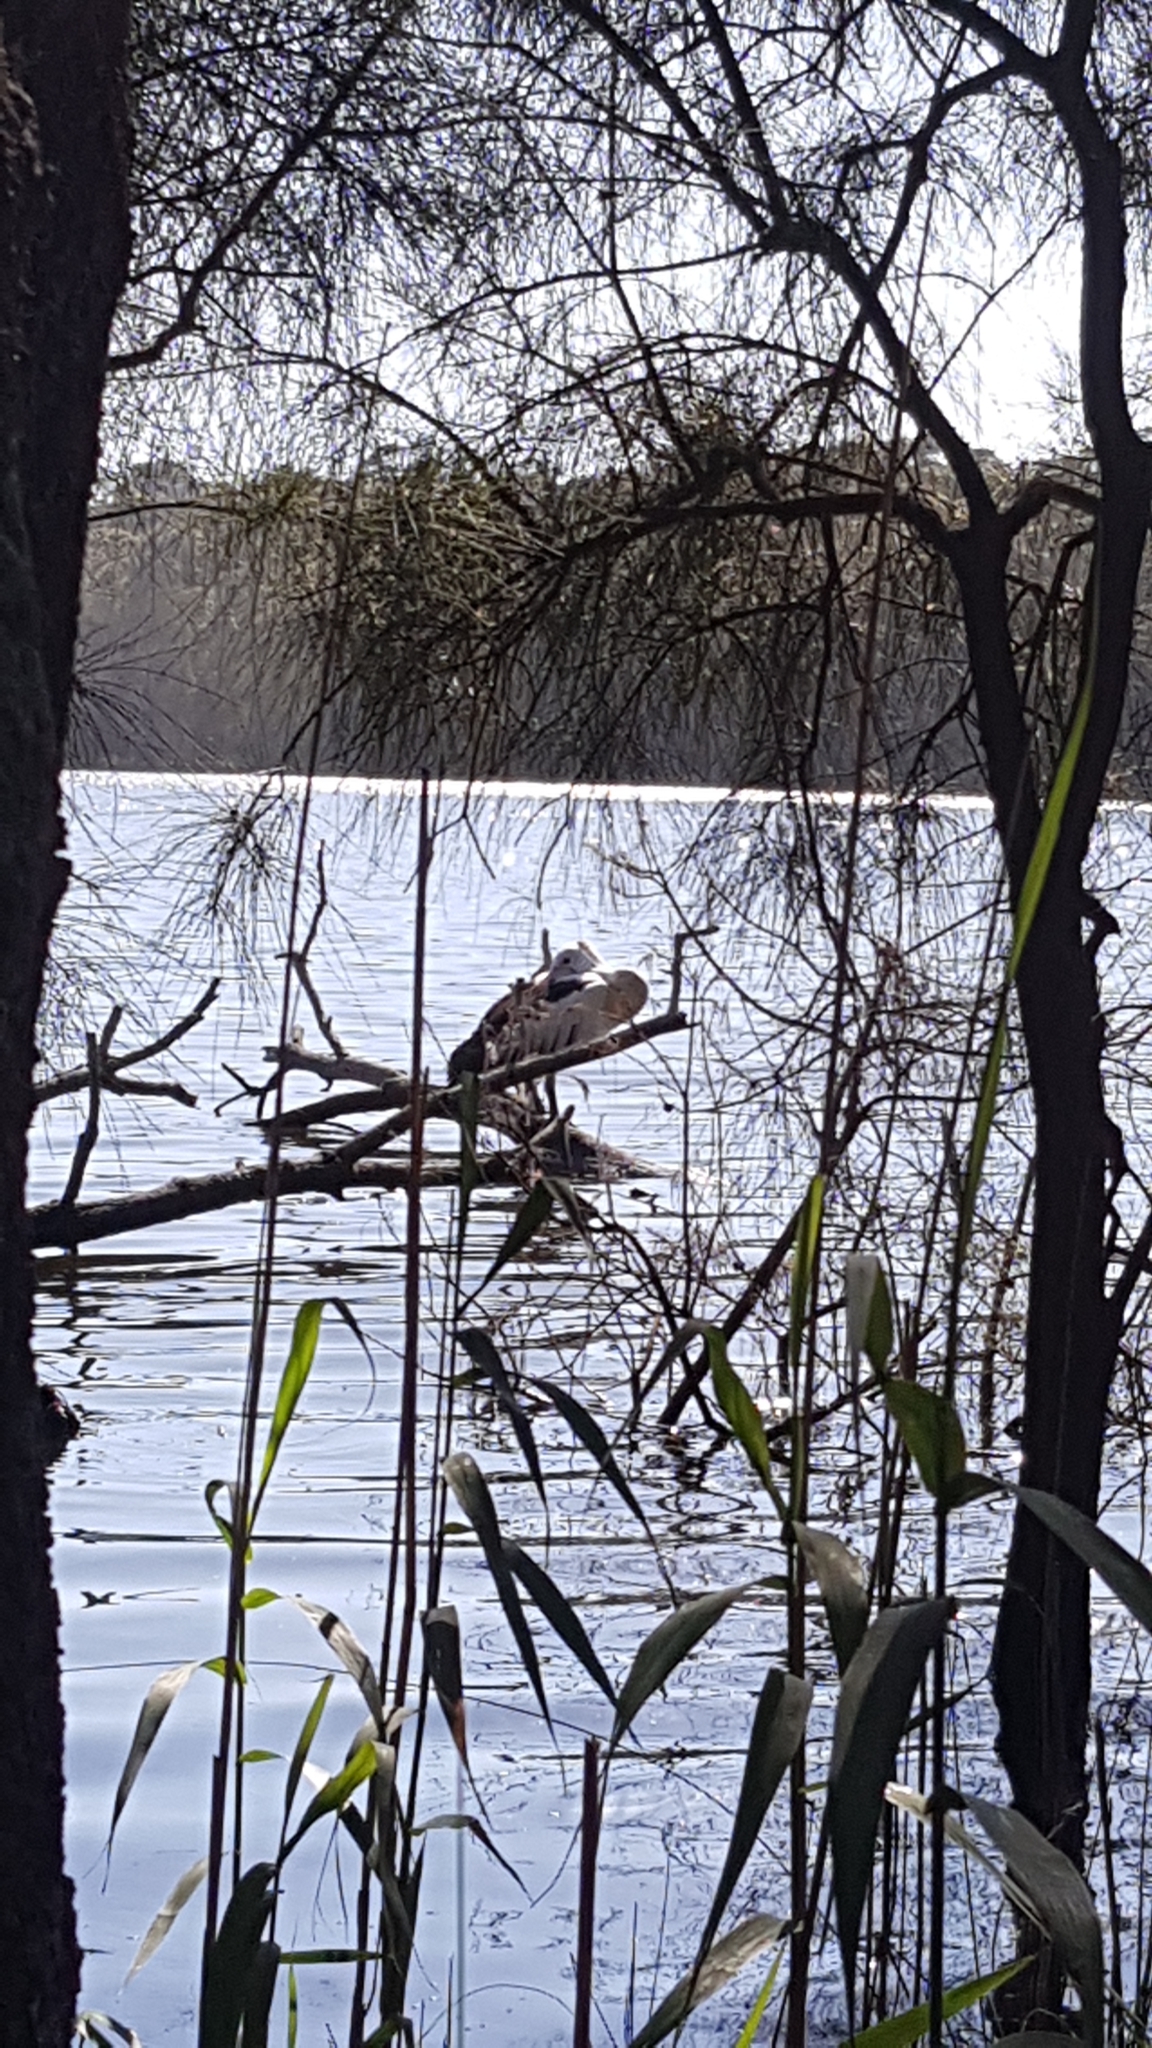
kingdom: Animalia
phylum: Chordata
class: Aves
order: Pelecaniformes
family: Pelecanidae
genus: Pelecanus
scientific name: Pelecanus conspicillatus
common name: Australian pelican
